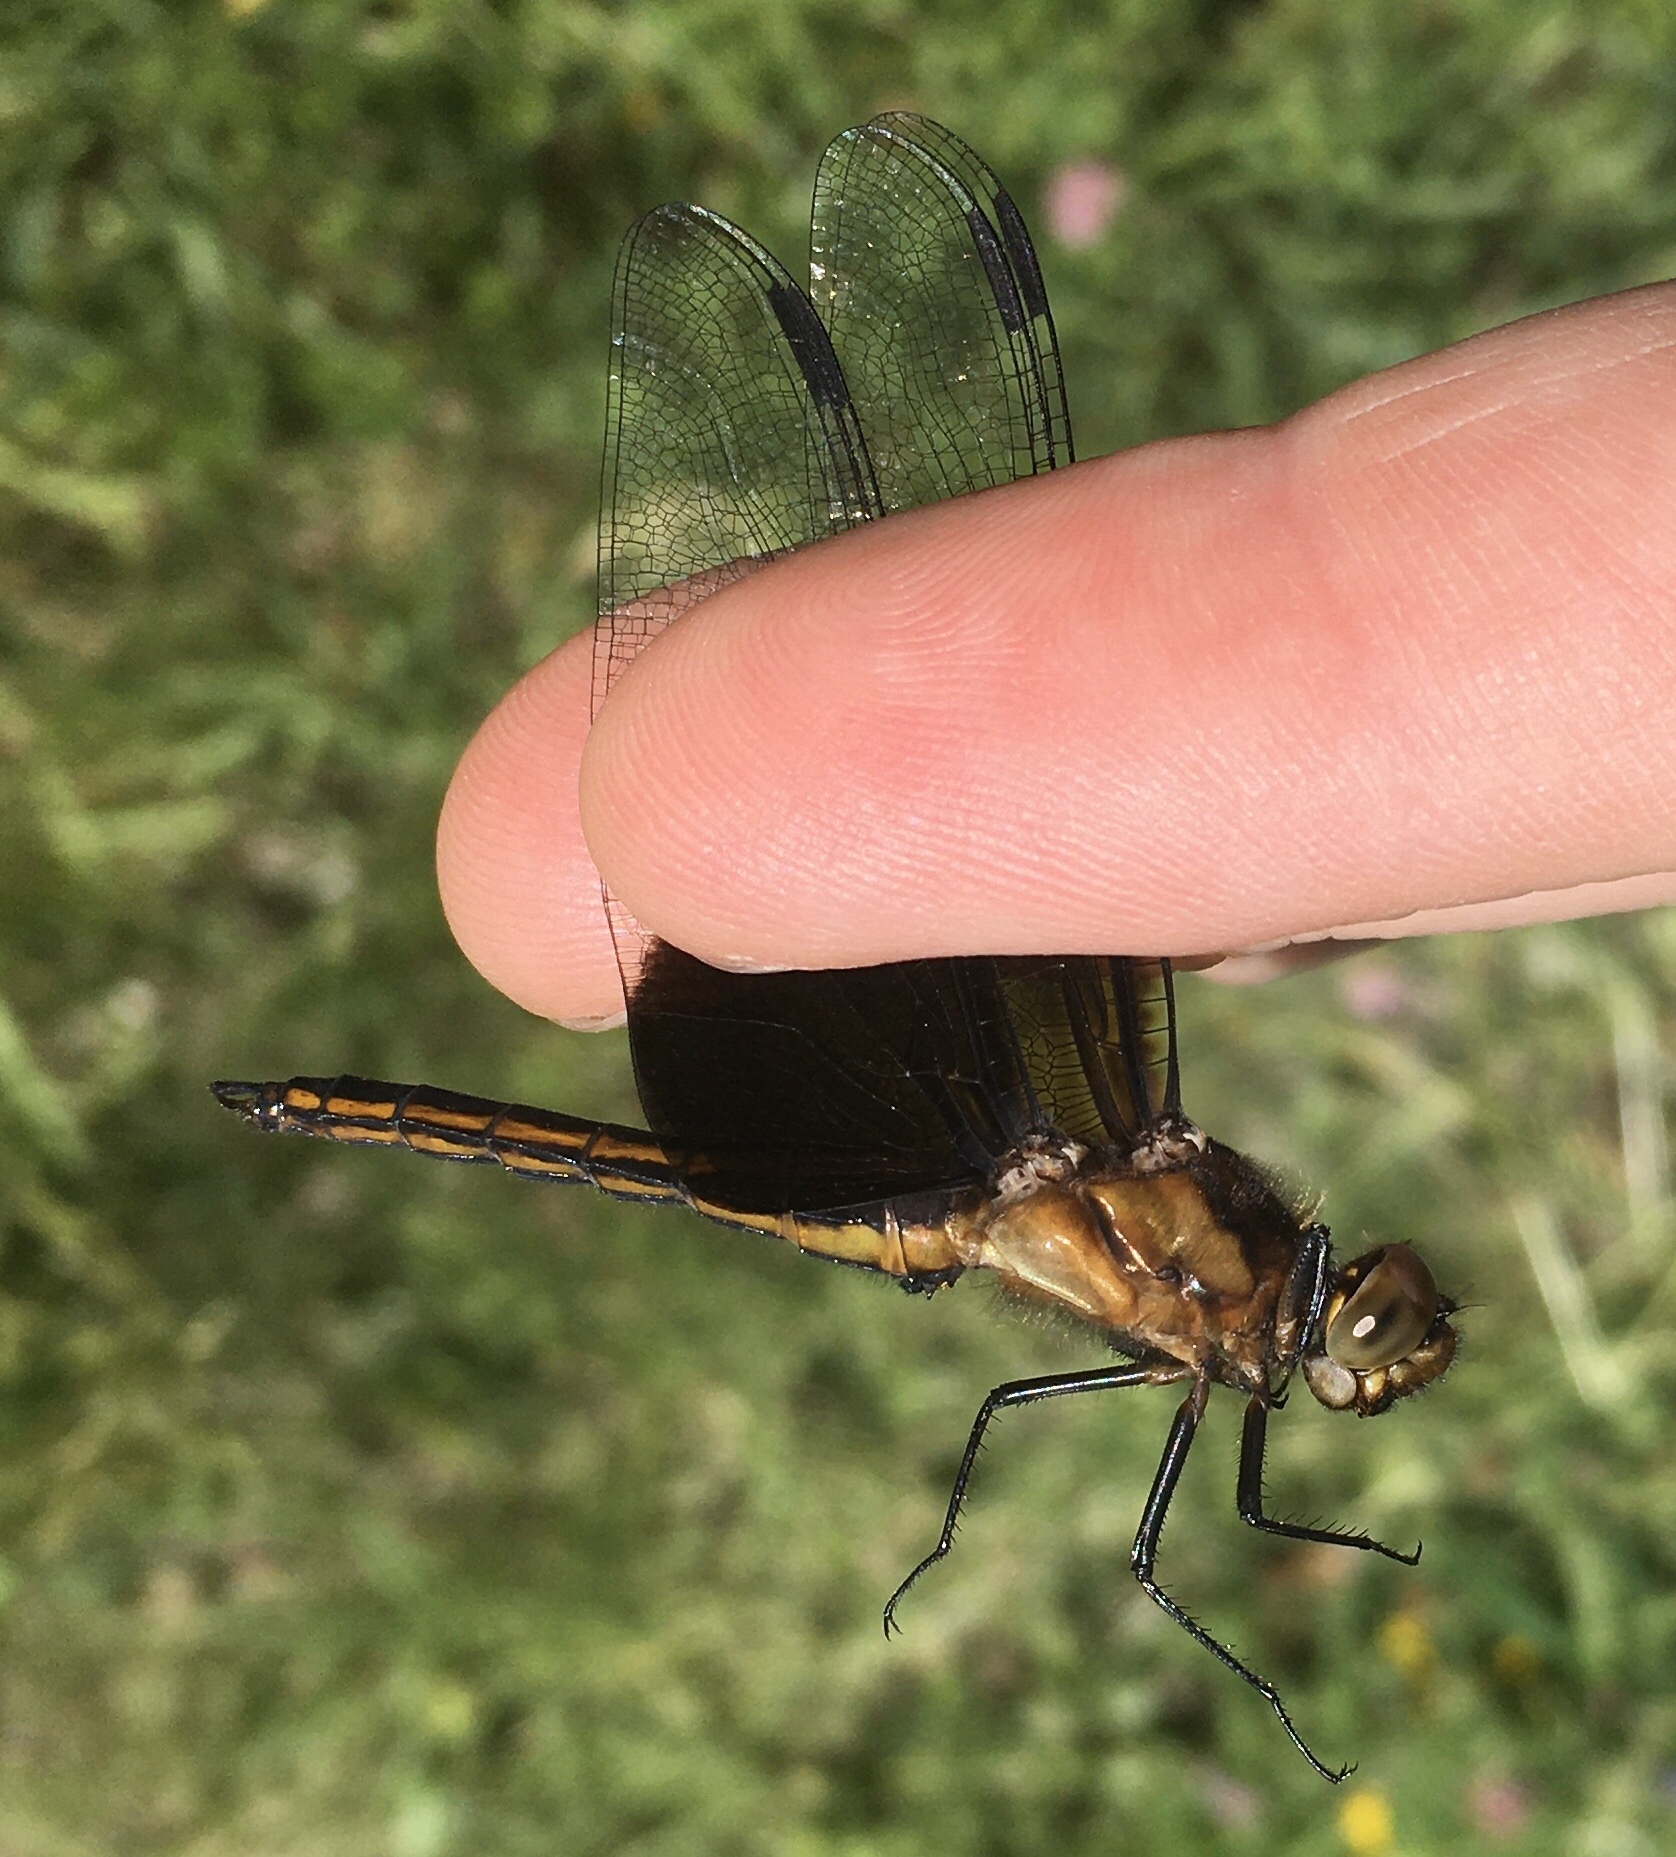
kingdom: Animalia
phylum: Arthropoda
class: Insecta
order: Odonata
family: Libellulidae
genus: Libellula
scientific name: Libellula luctuosa
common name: Widow skimmer
